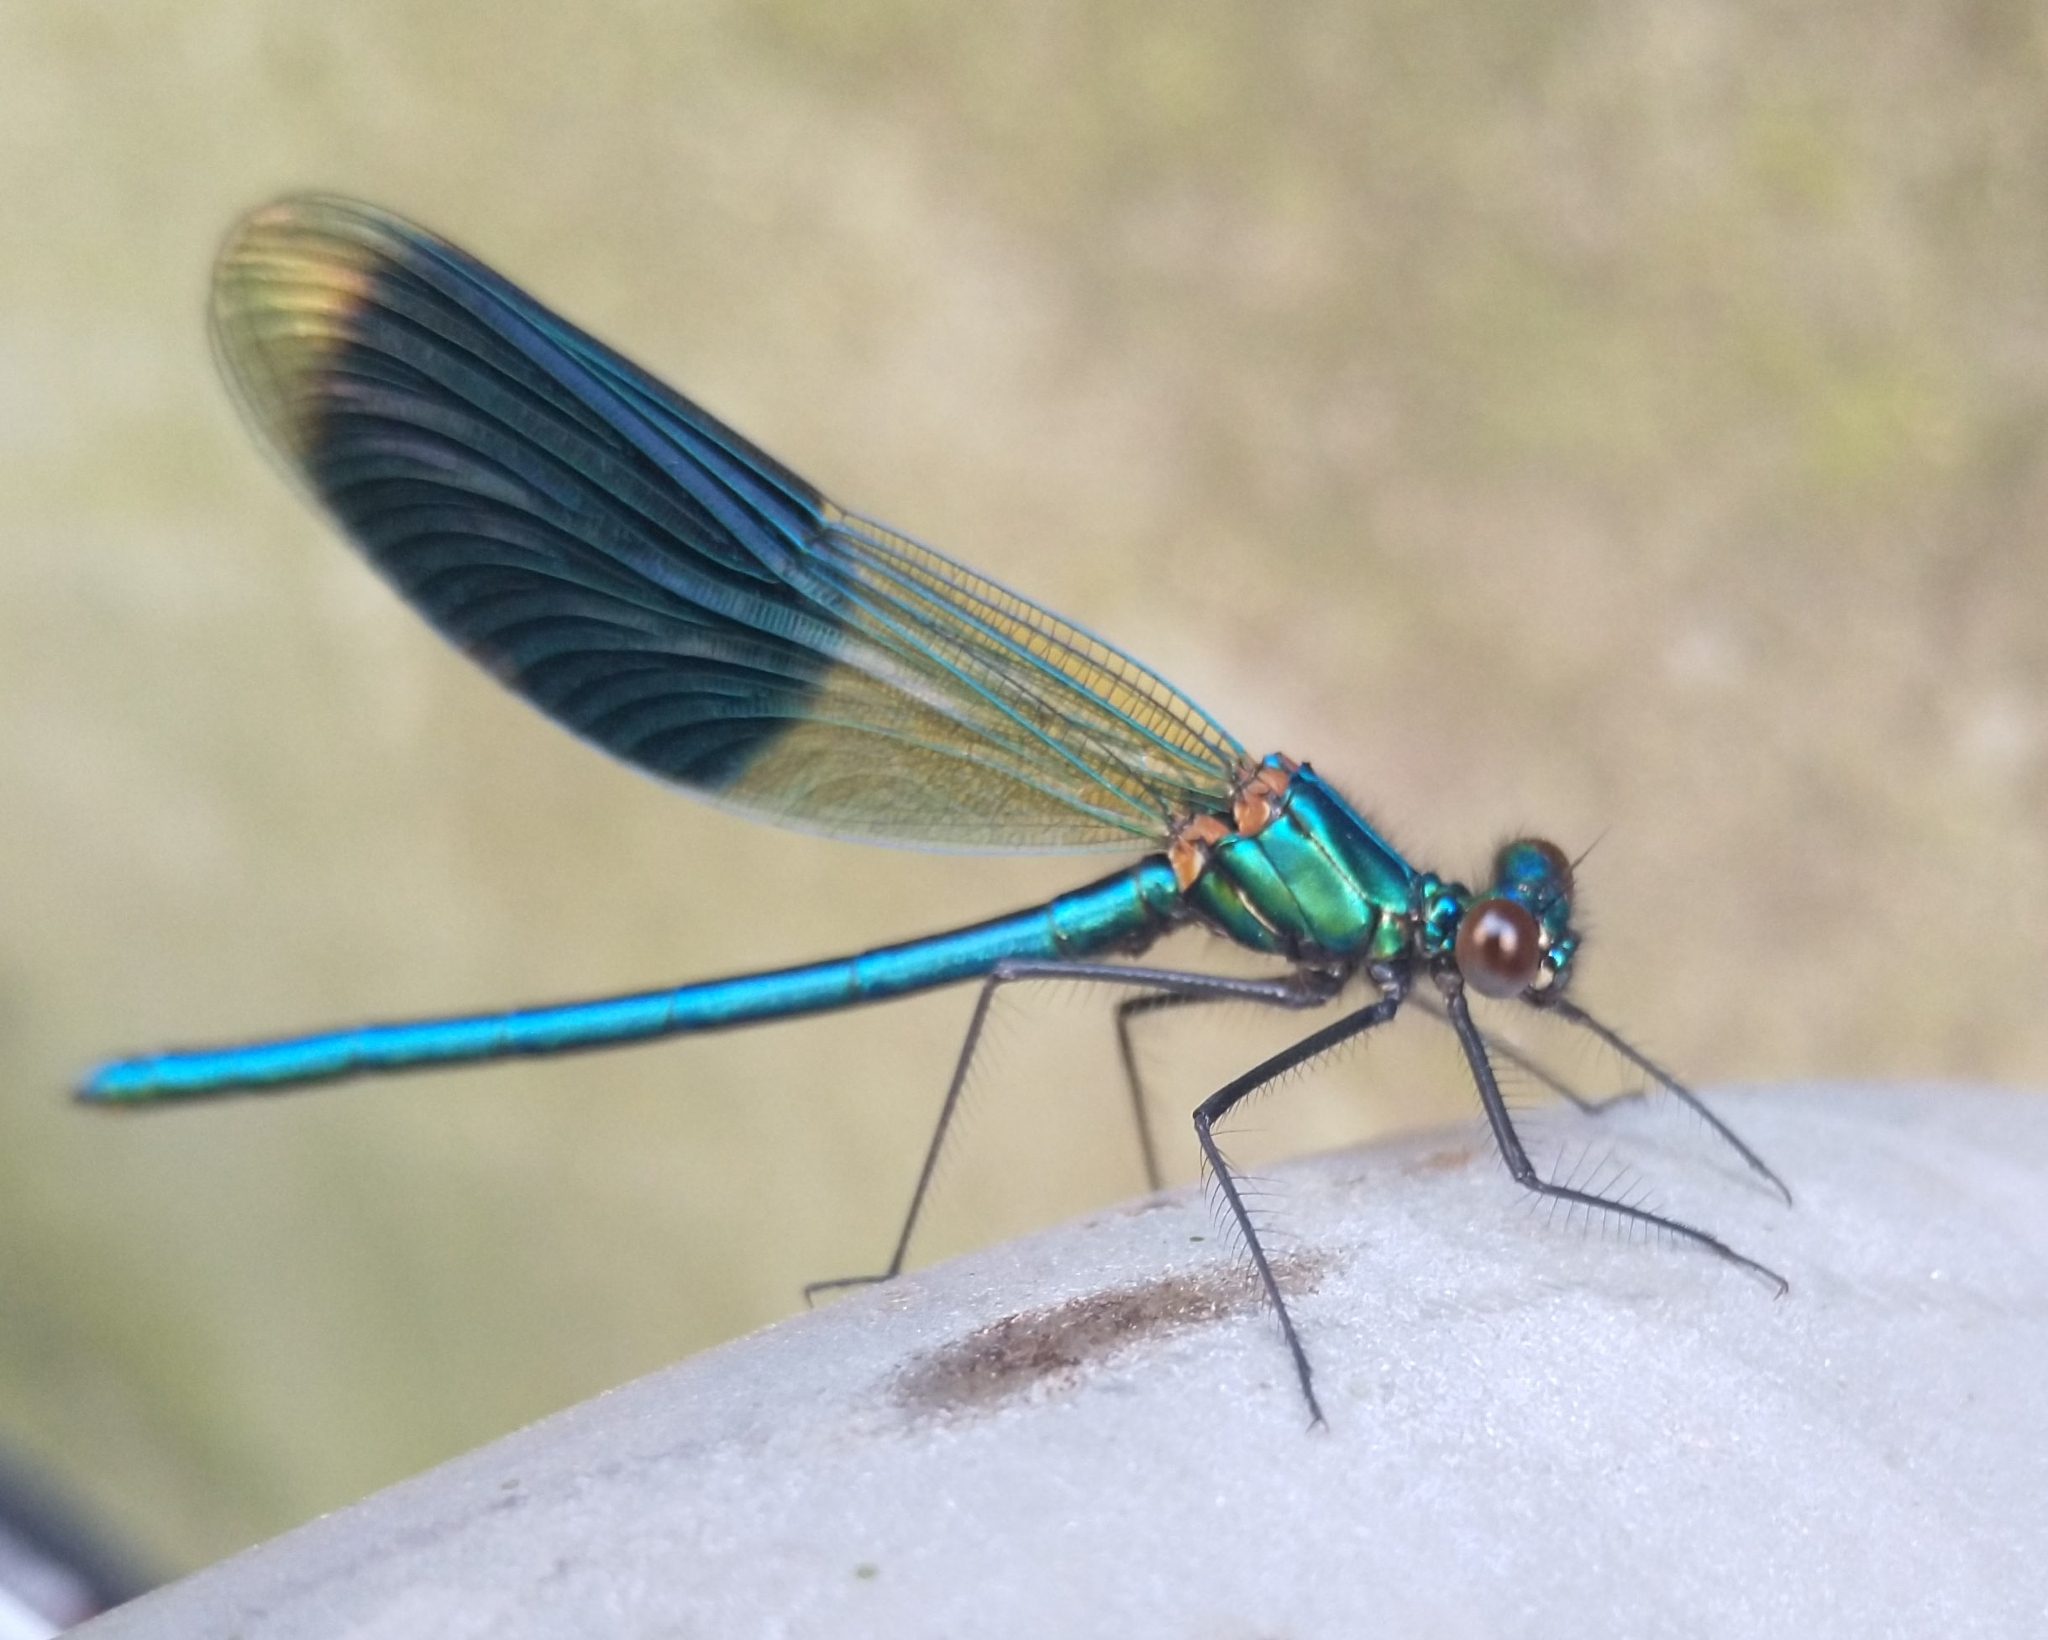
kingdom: Animalia
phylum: Arthropoda
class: Insecta
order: Odonata
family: Calopterygidae
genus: Calopteryx
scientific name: Calopteryx splendens
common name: Banded demoiselle
